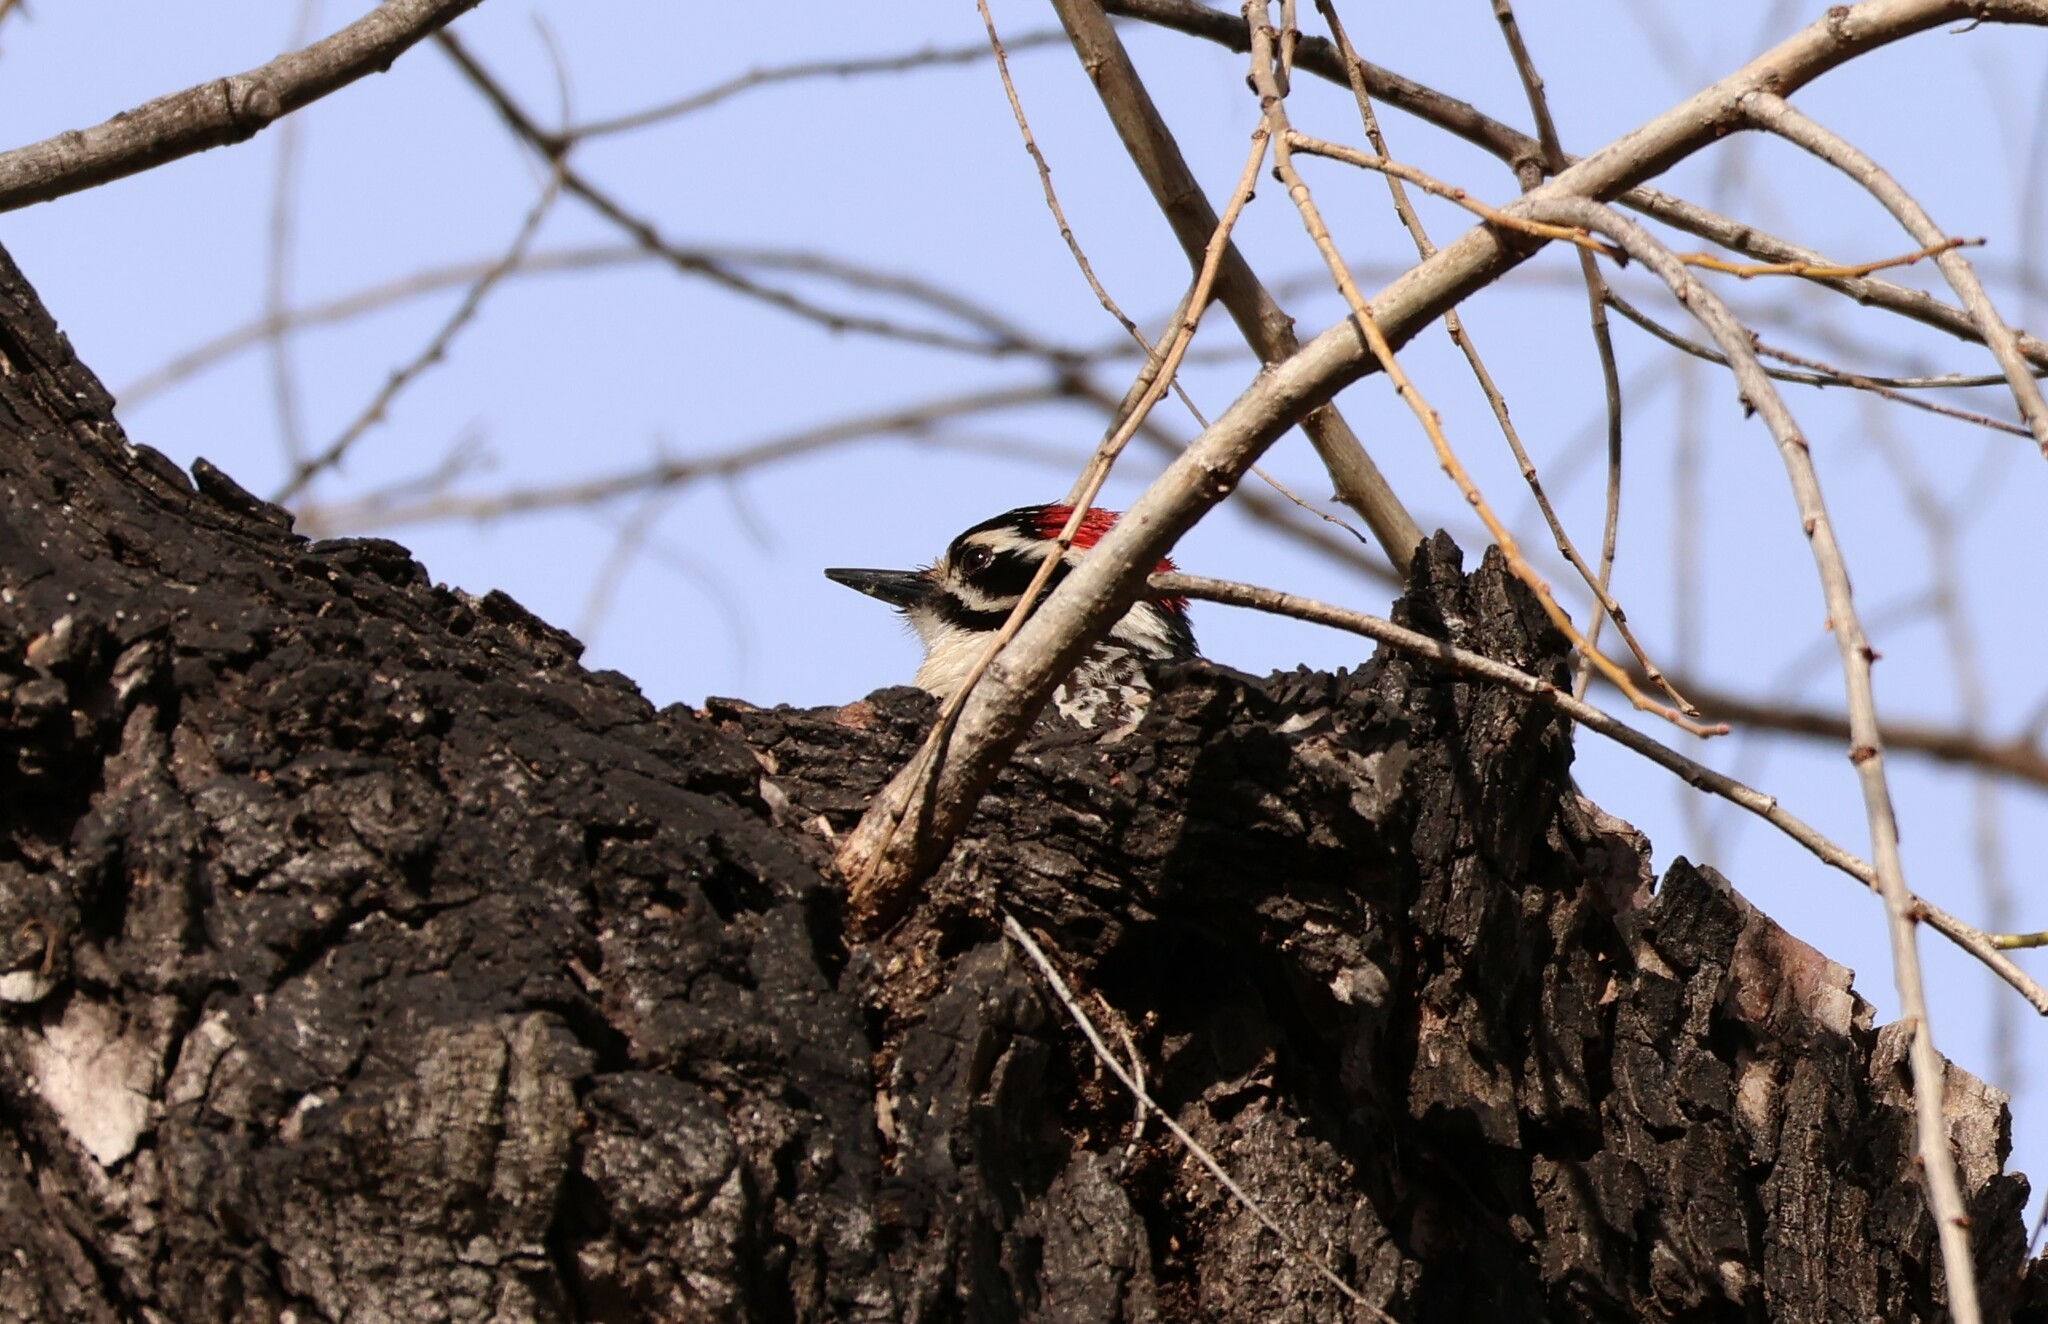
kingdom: Animalia
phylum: Chordata
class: Aves
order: Piciformes
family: Picidae
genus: Dryobates
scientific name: Dryobates nuttallii
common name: Nuttall's woodpecker
